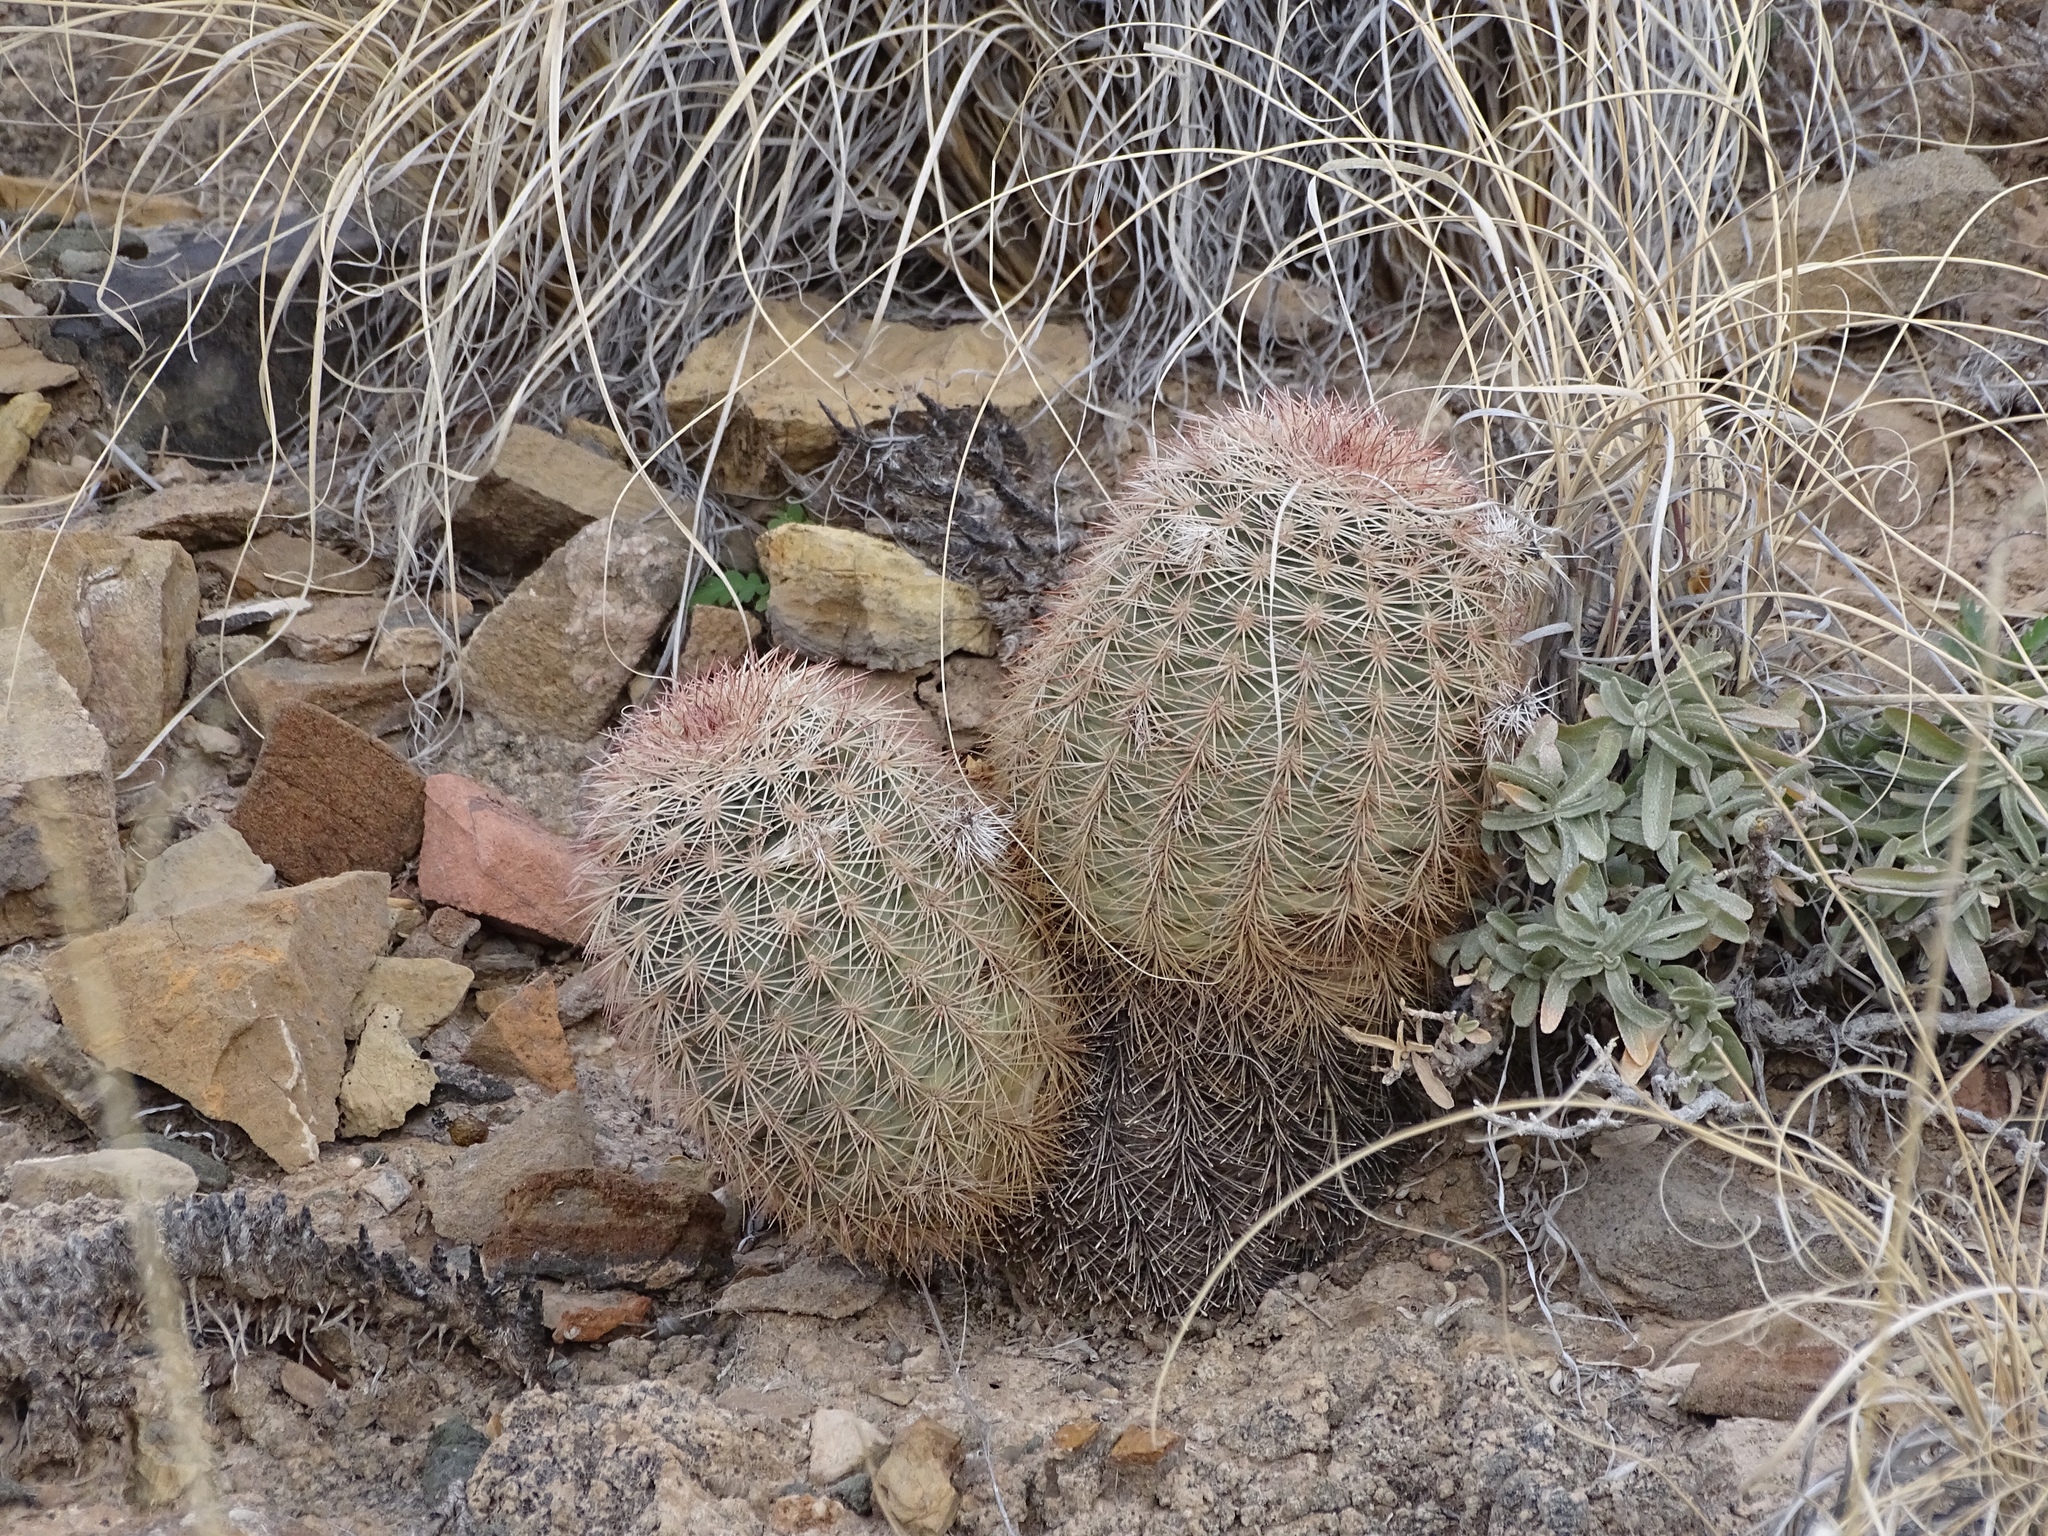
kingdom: Plantae
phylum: Tracheophyta
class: Magnoliopsida
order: Caryophyllales
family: Cactaceae
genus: Echinocereus
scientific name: Echinocereus dasyacanthus
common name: Spiny hedgehog cactus
